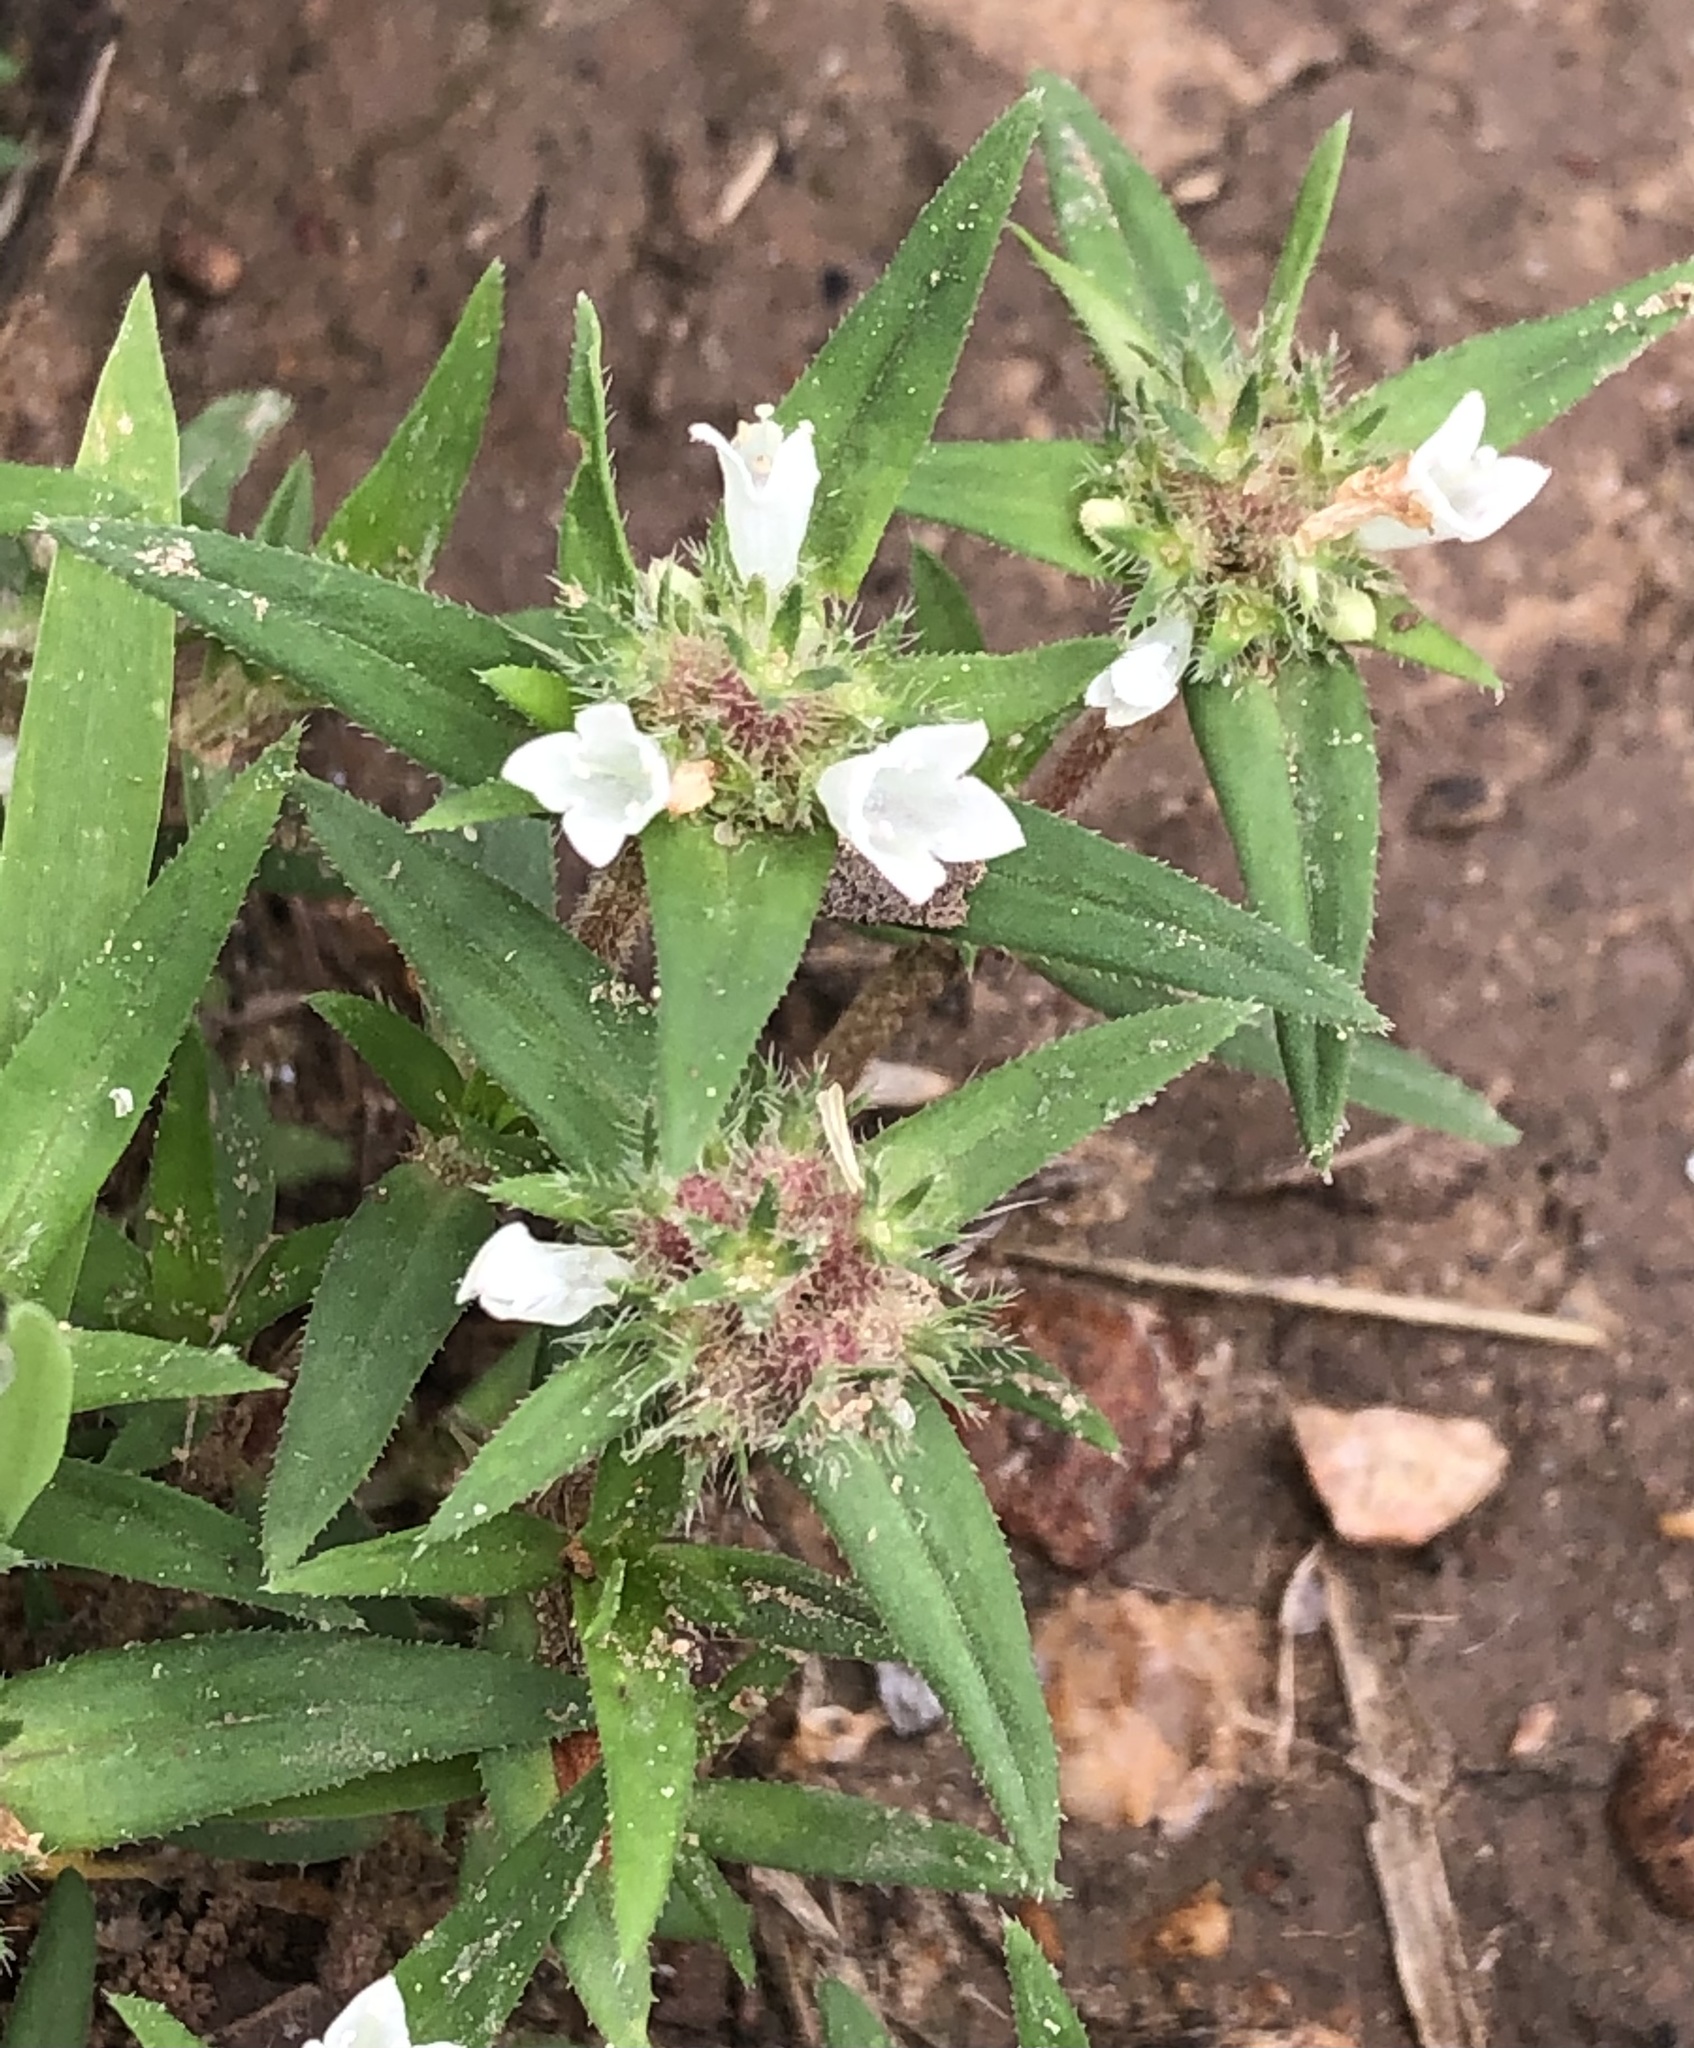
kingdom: Plantae
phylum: Tracheophyta
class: Magnoliopsida
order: Gentianales
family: Rubiaceae
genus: Richardia
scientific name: Richardia tricocca
